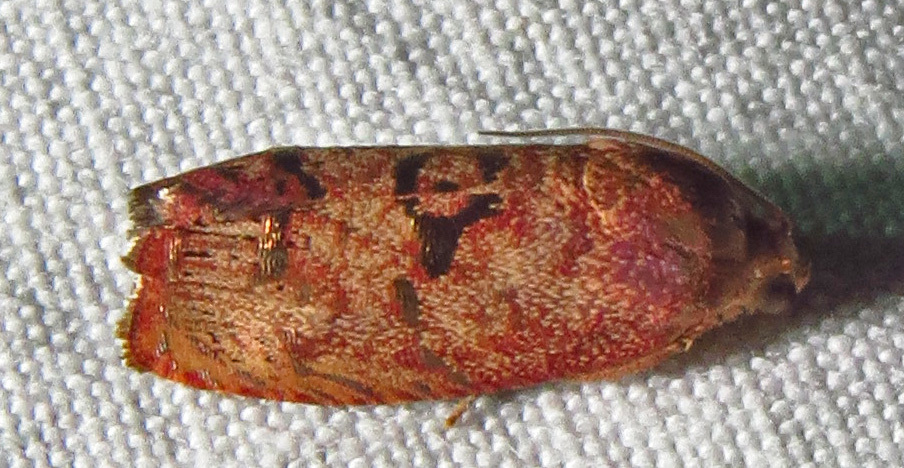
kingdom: Animalia
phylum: Arthropoda
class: Insecta
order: Lepidoptera
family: Tortricidae
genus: Cydia
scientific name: Cydia latiferreana
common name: Filbertworm moth
